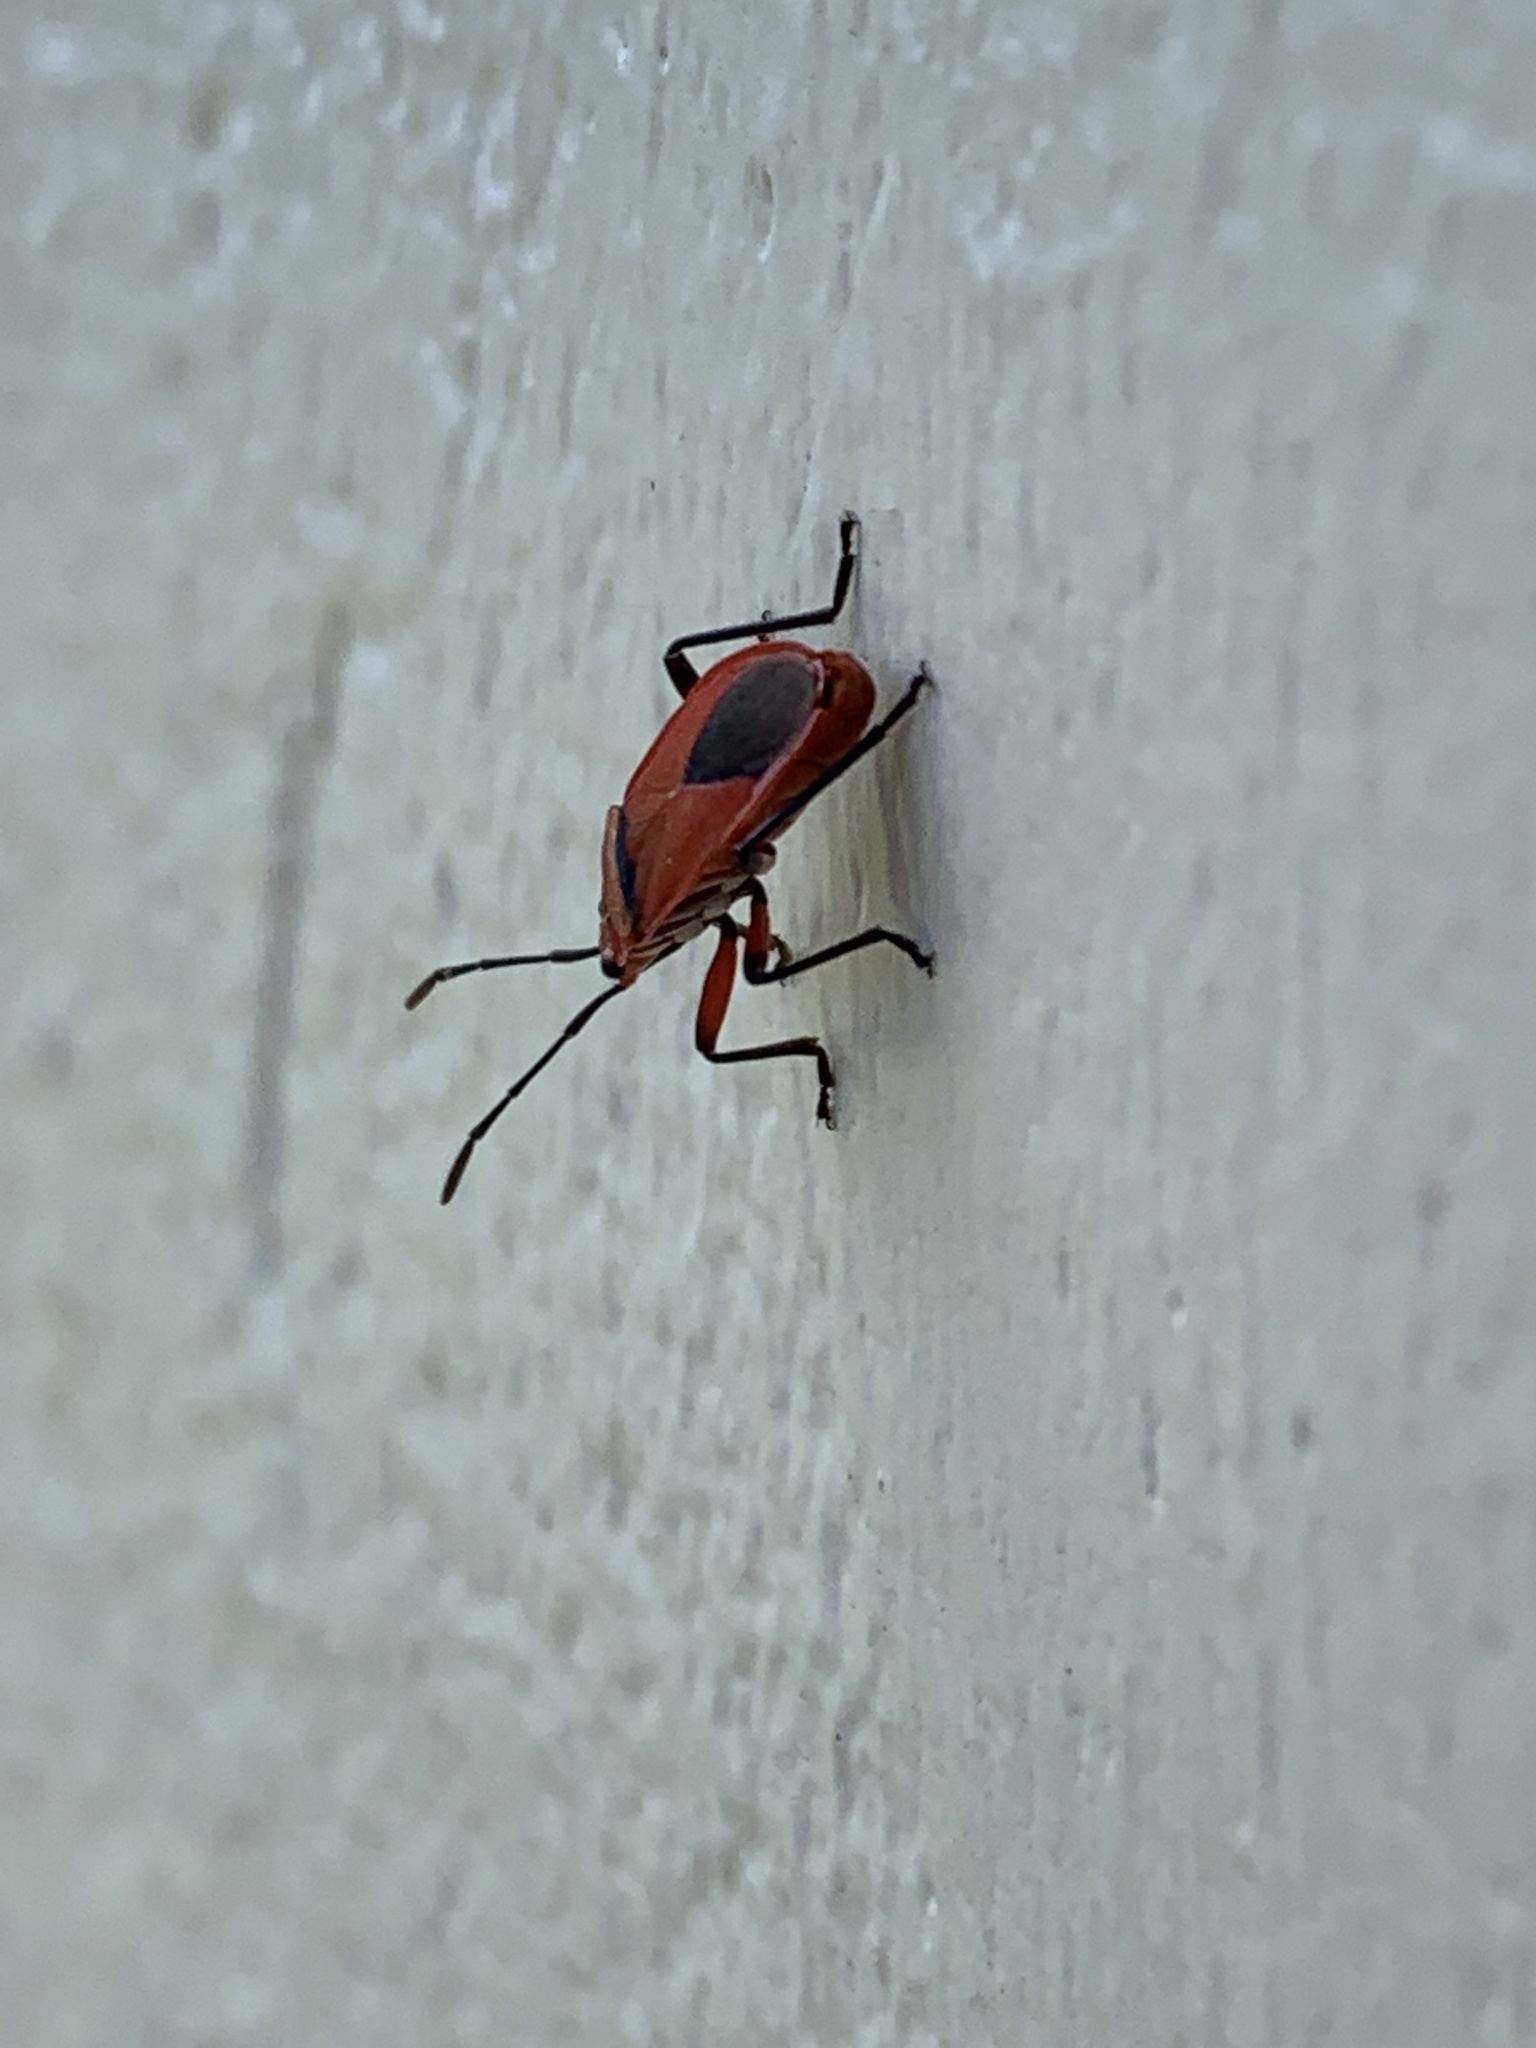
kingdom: Animalia
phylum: Arthropoda
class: Insecta
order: Hemiptera
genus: Cenaeus
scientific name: Cenaeus
